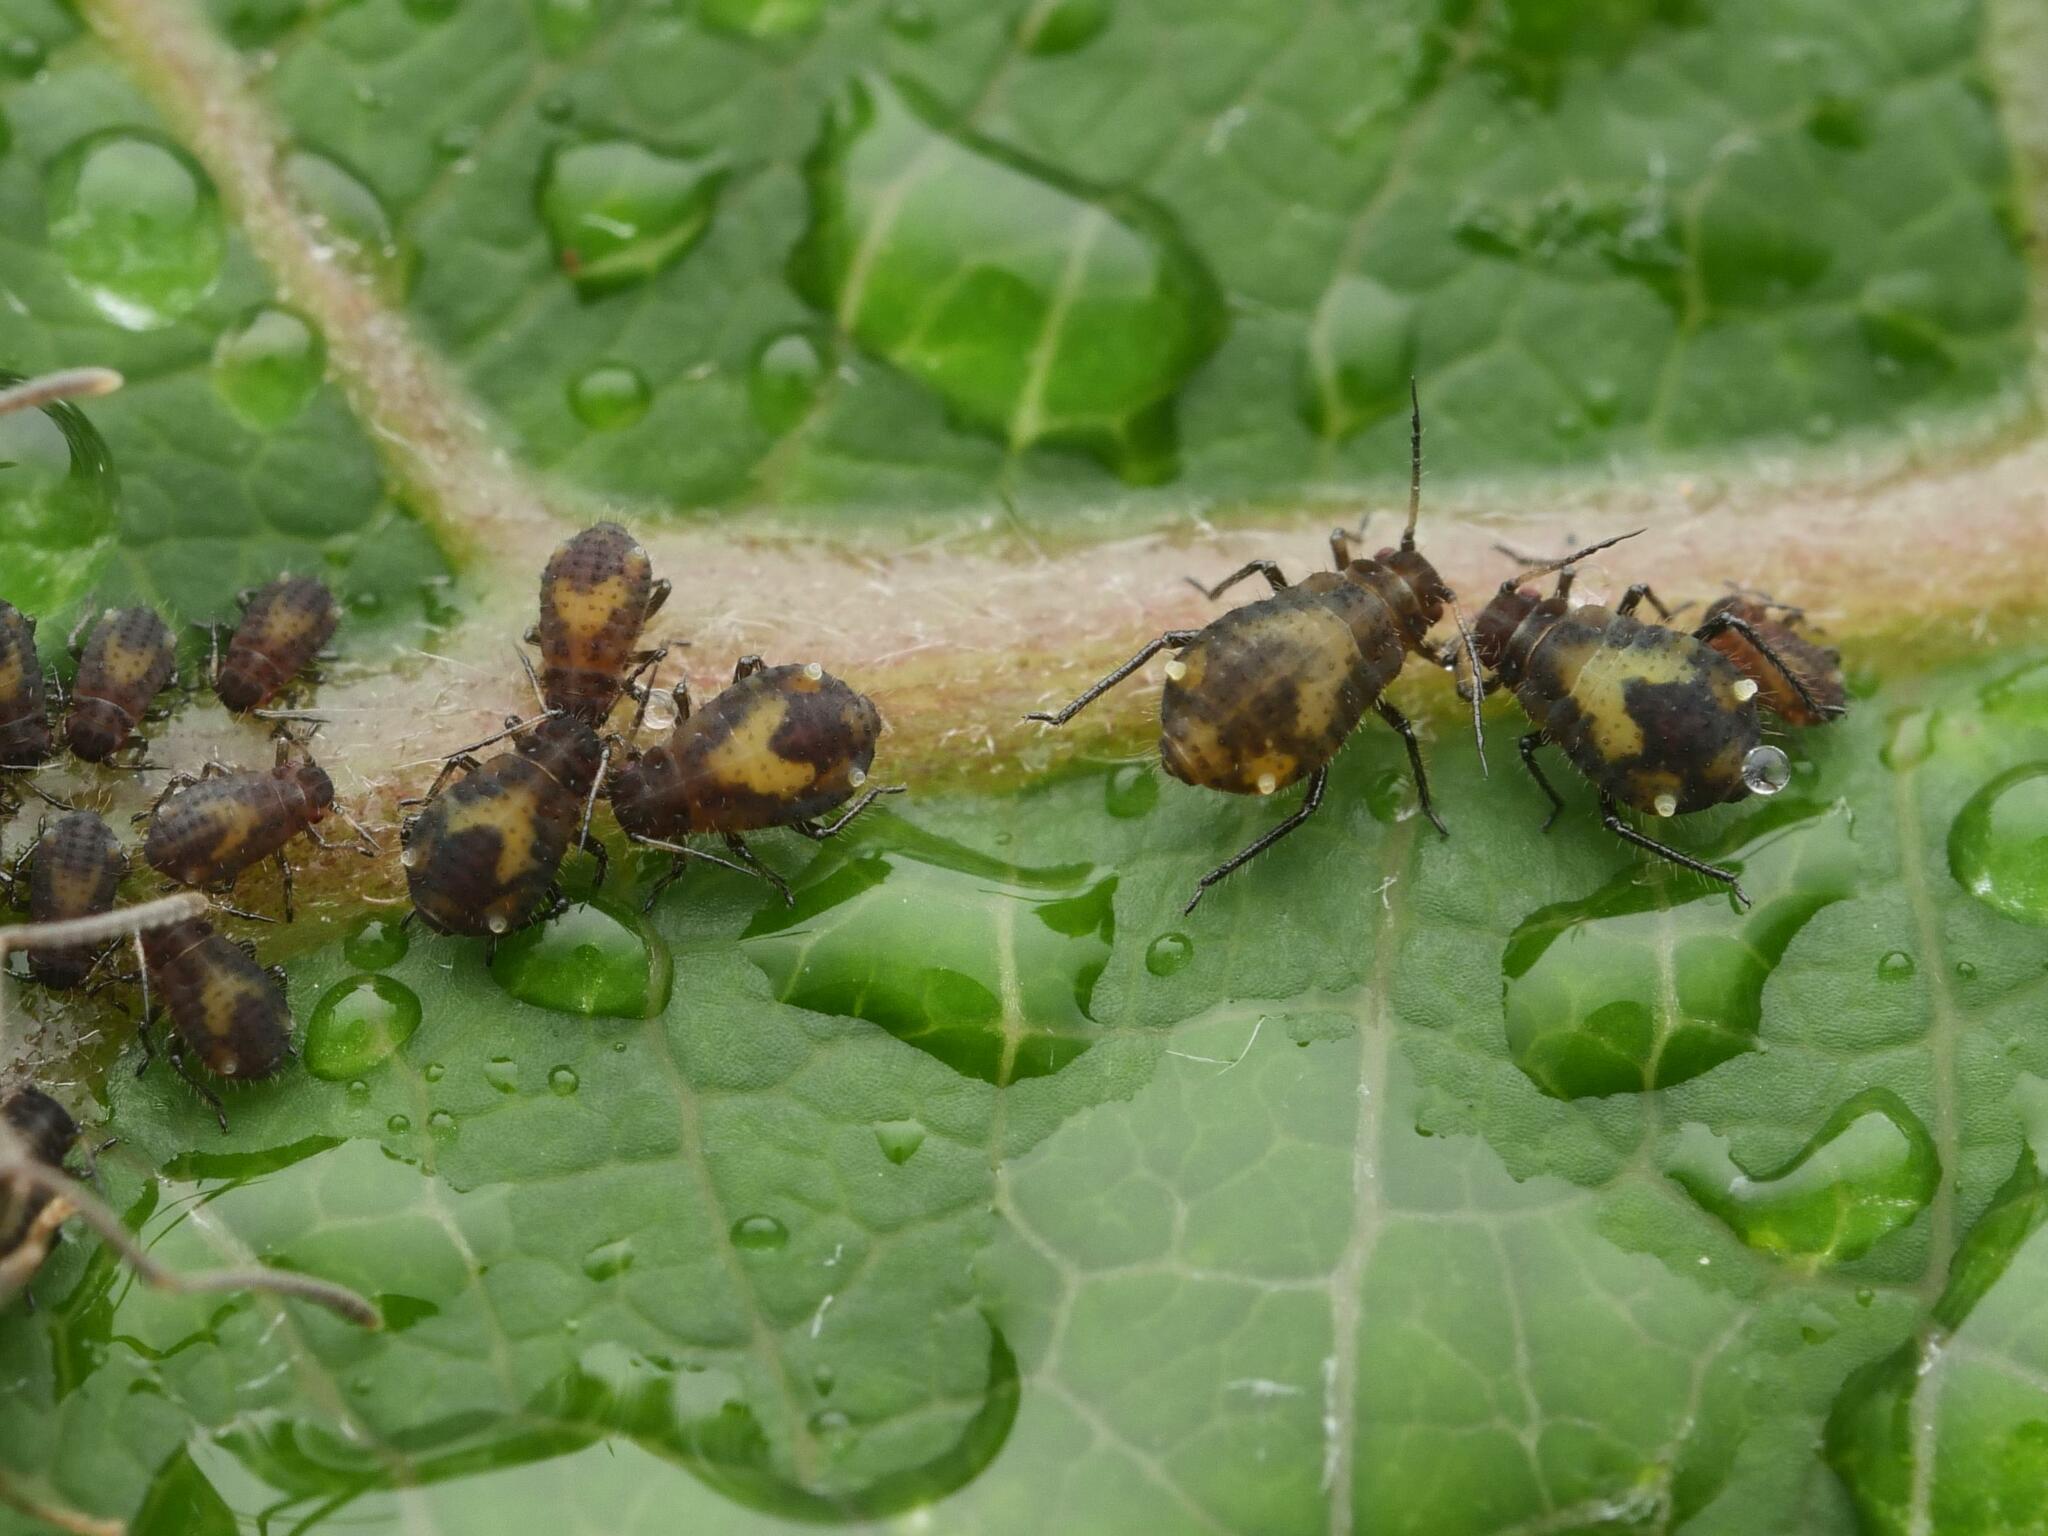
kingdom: Animalia
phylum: Arthropoda
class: Insecta
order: Hemiptera
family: Aphididae
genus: Chaitophorus
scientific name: Chaitophorus populicola
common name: Smokywinged poplar aphid
